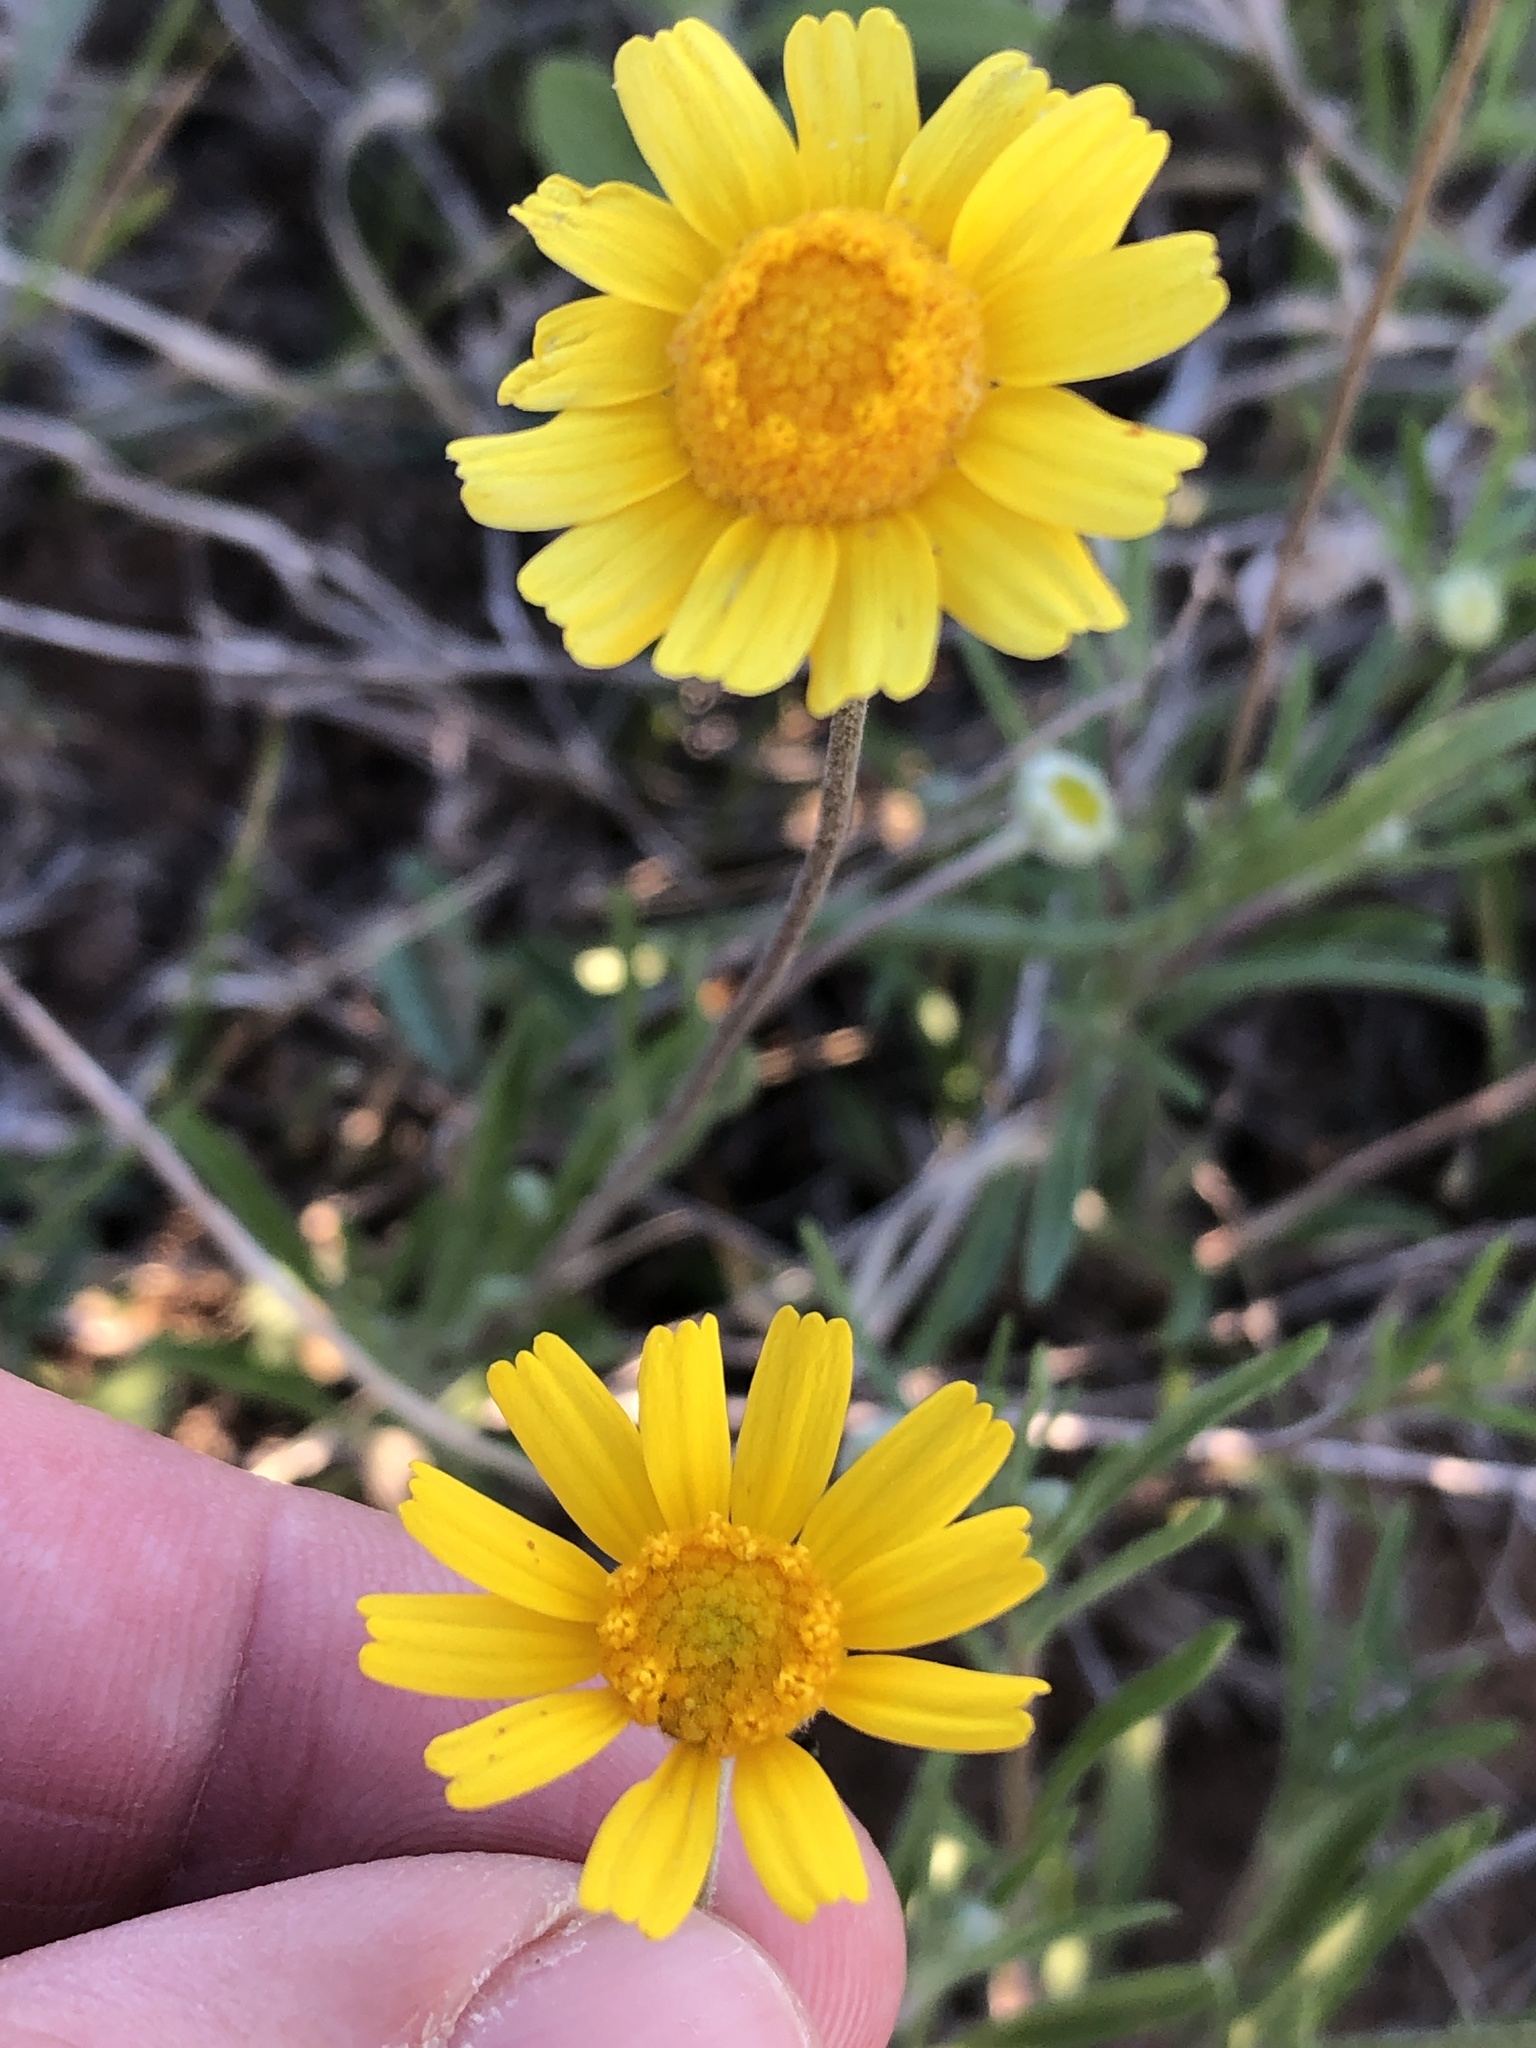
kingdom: Plantae
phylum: Tracheophyta
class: Magnoliopsida
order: Asterales
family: Asteraceae
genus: Tetraneuris
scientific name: Tetraneuris scaposa
